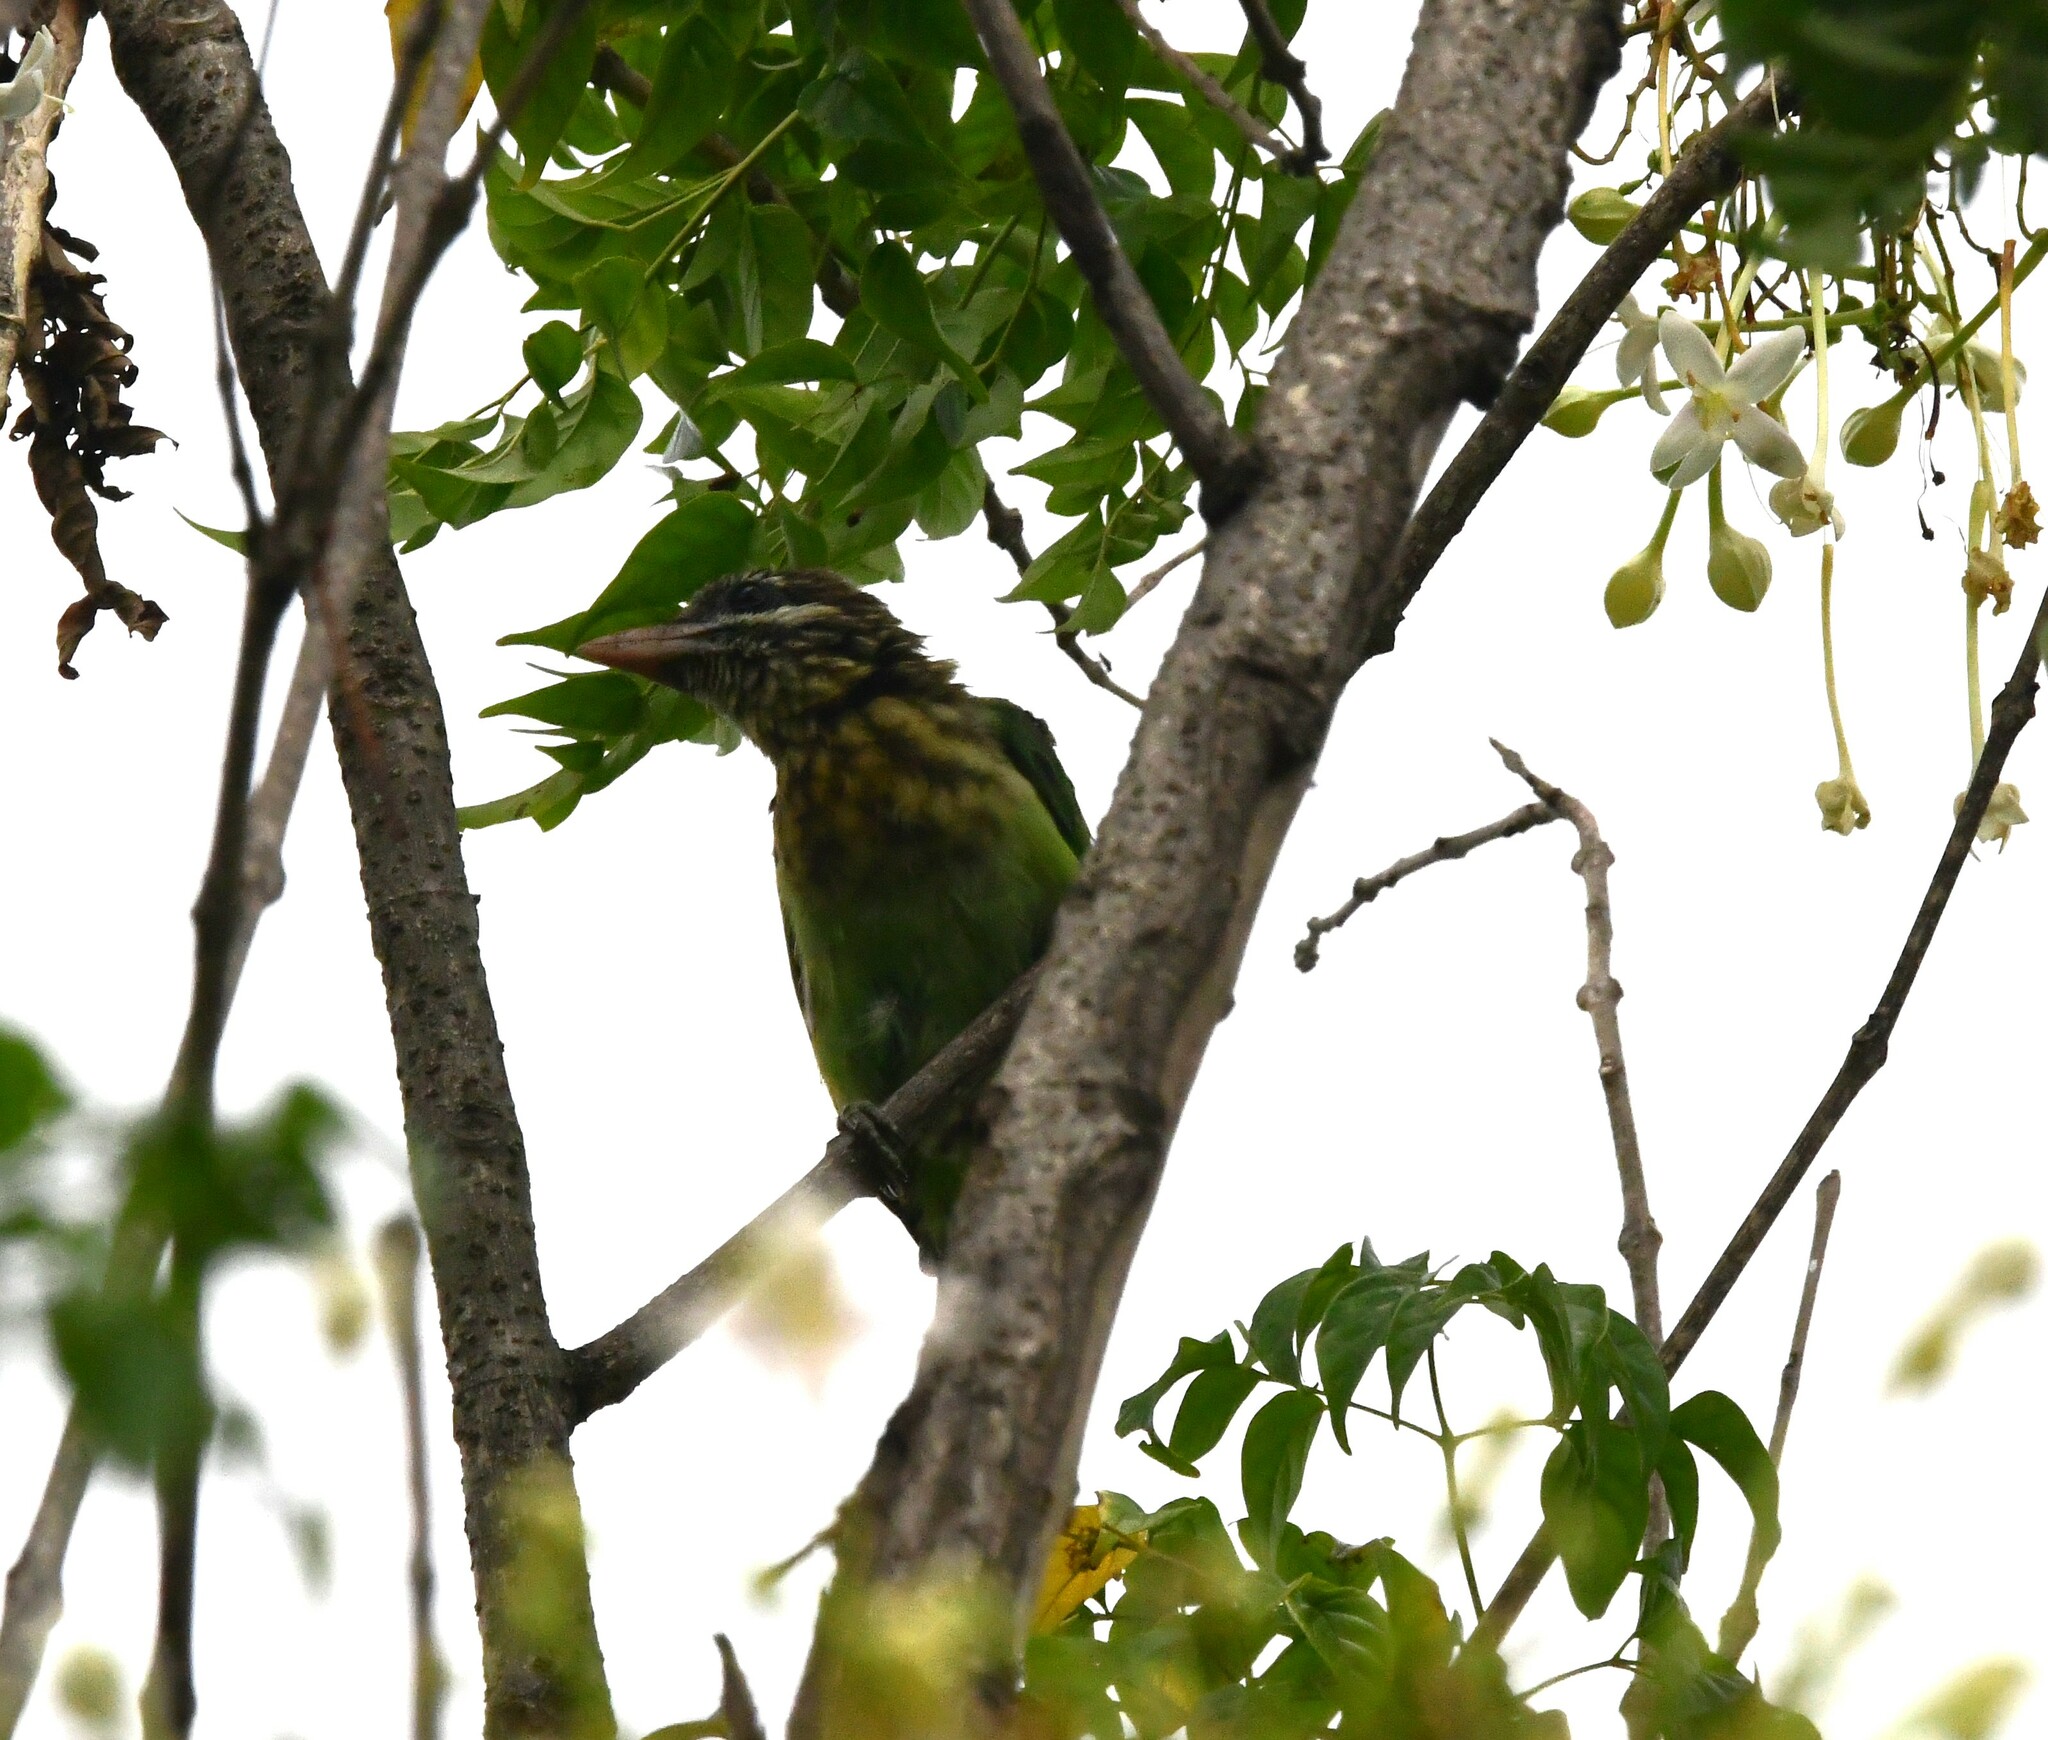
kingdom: Animalia
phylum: Chordata
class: Aves
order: Piciformes
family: Megalaimidae
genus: Psilopogon
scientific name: Psilopogon viridis
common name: White-cheeked barbet
